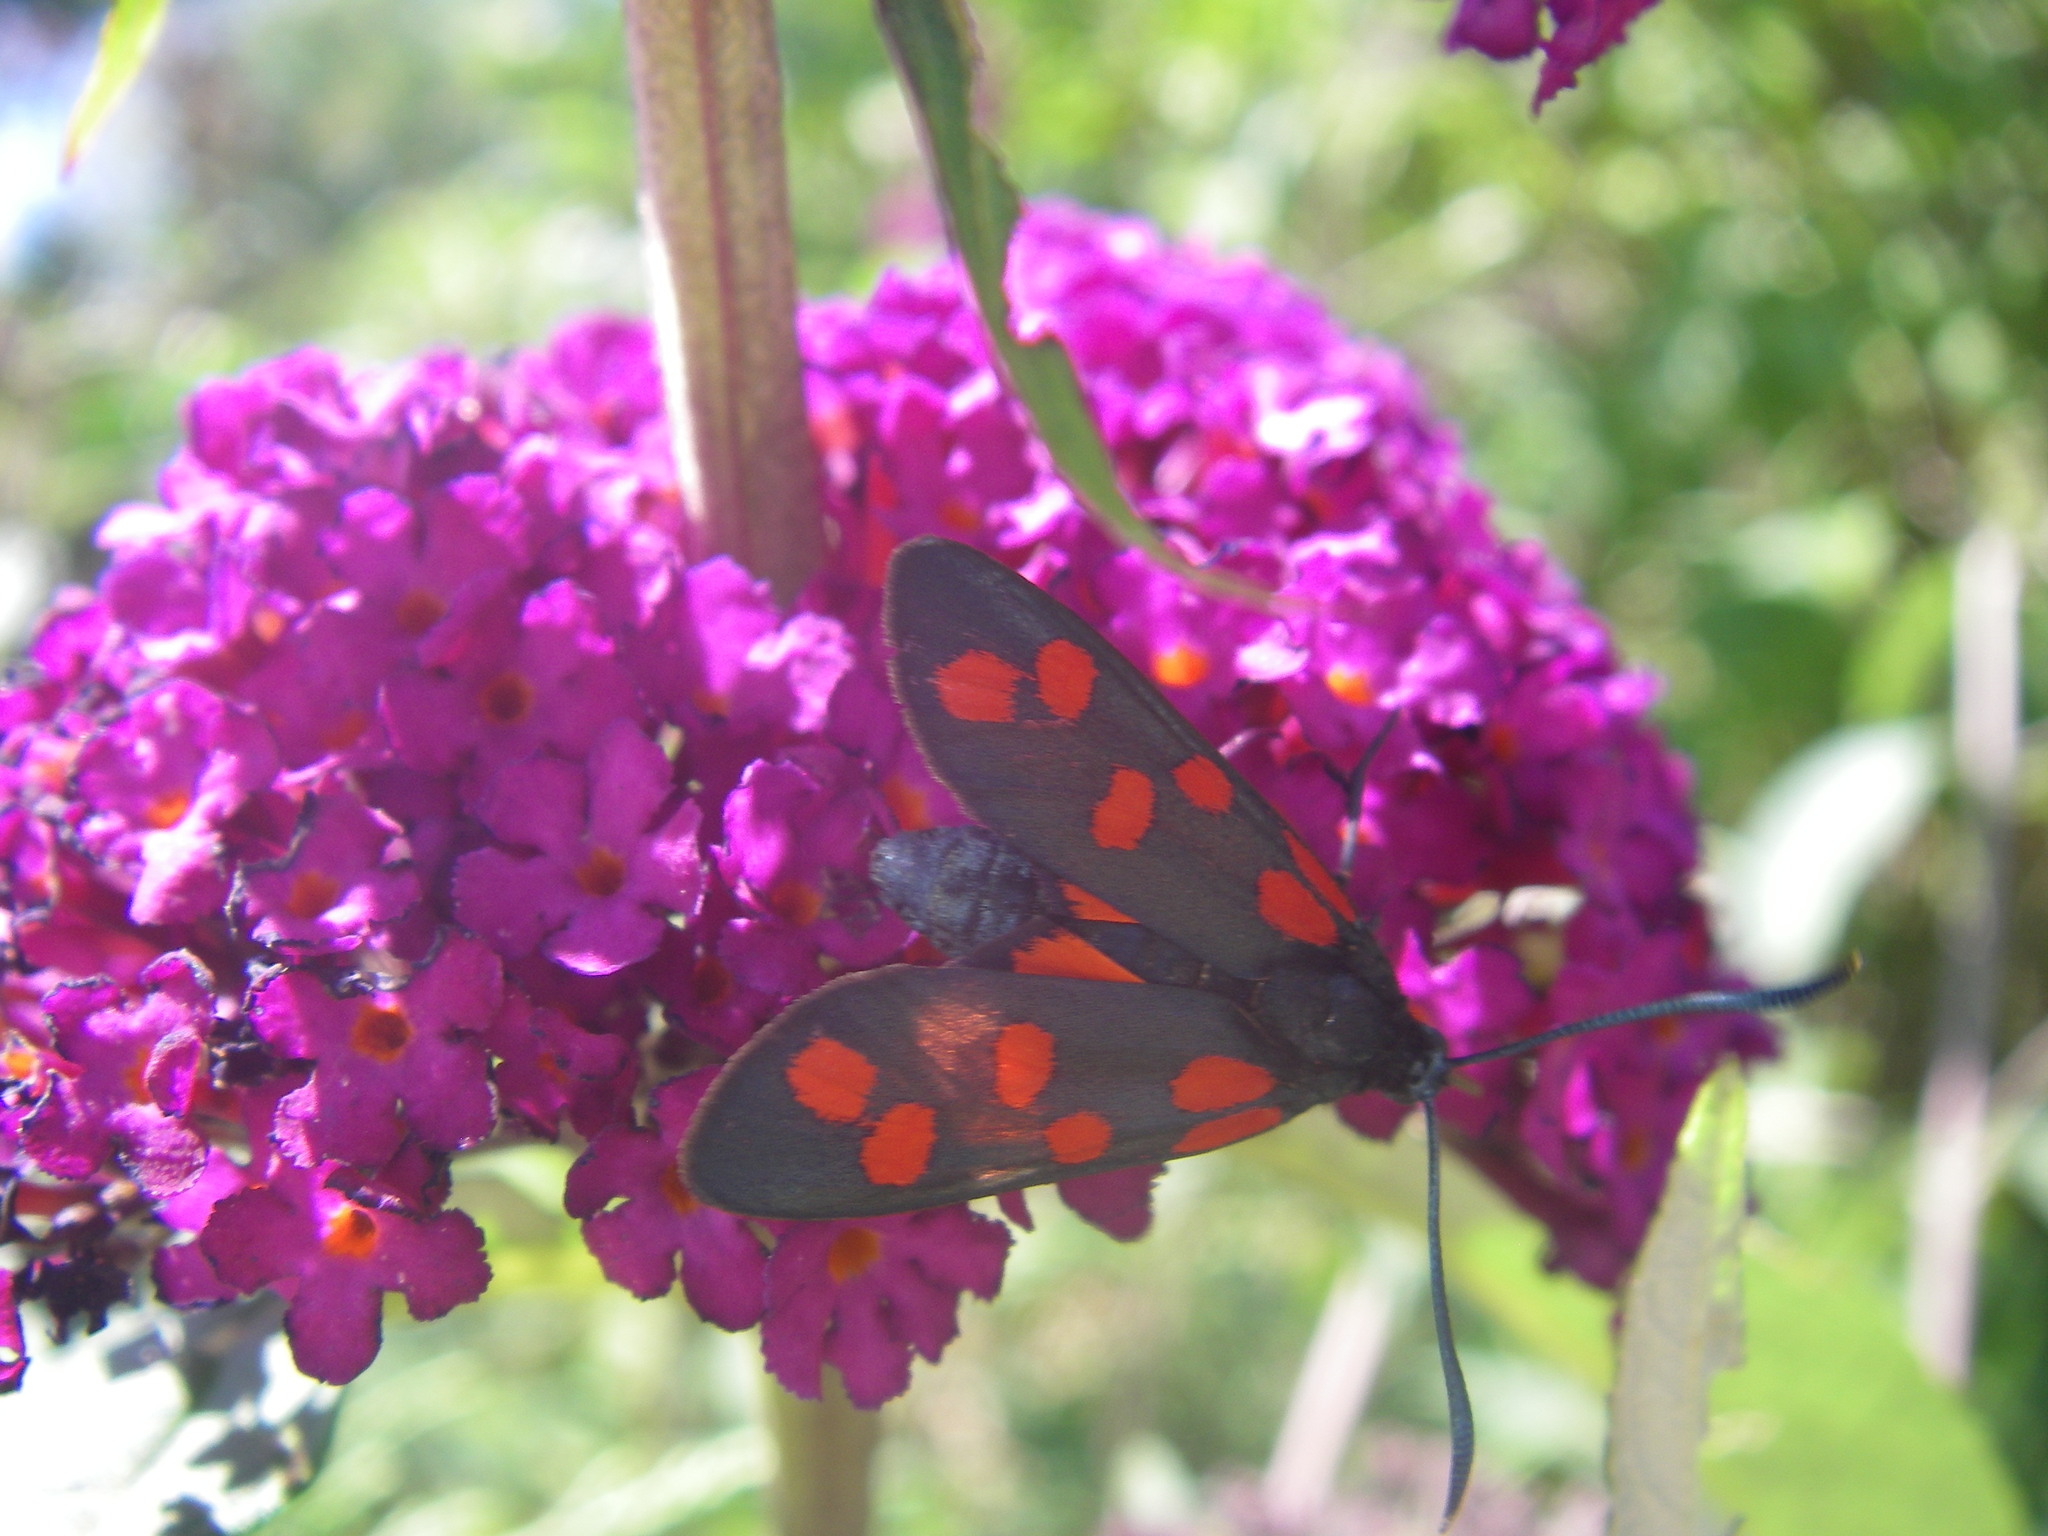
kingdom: Animalia
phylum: Arthropoda
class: Insecta
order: Lepidoptera
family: Zygaenidae
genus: Zygaena
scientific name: Zygaena filipendulae
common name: Six-spot burnet
